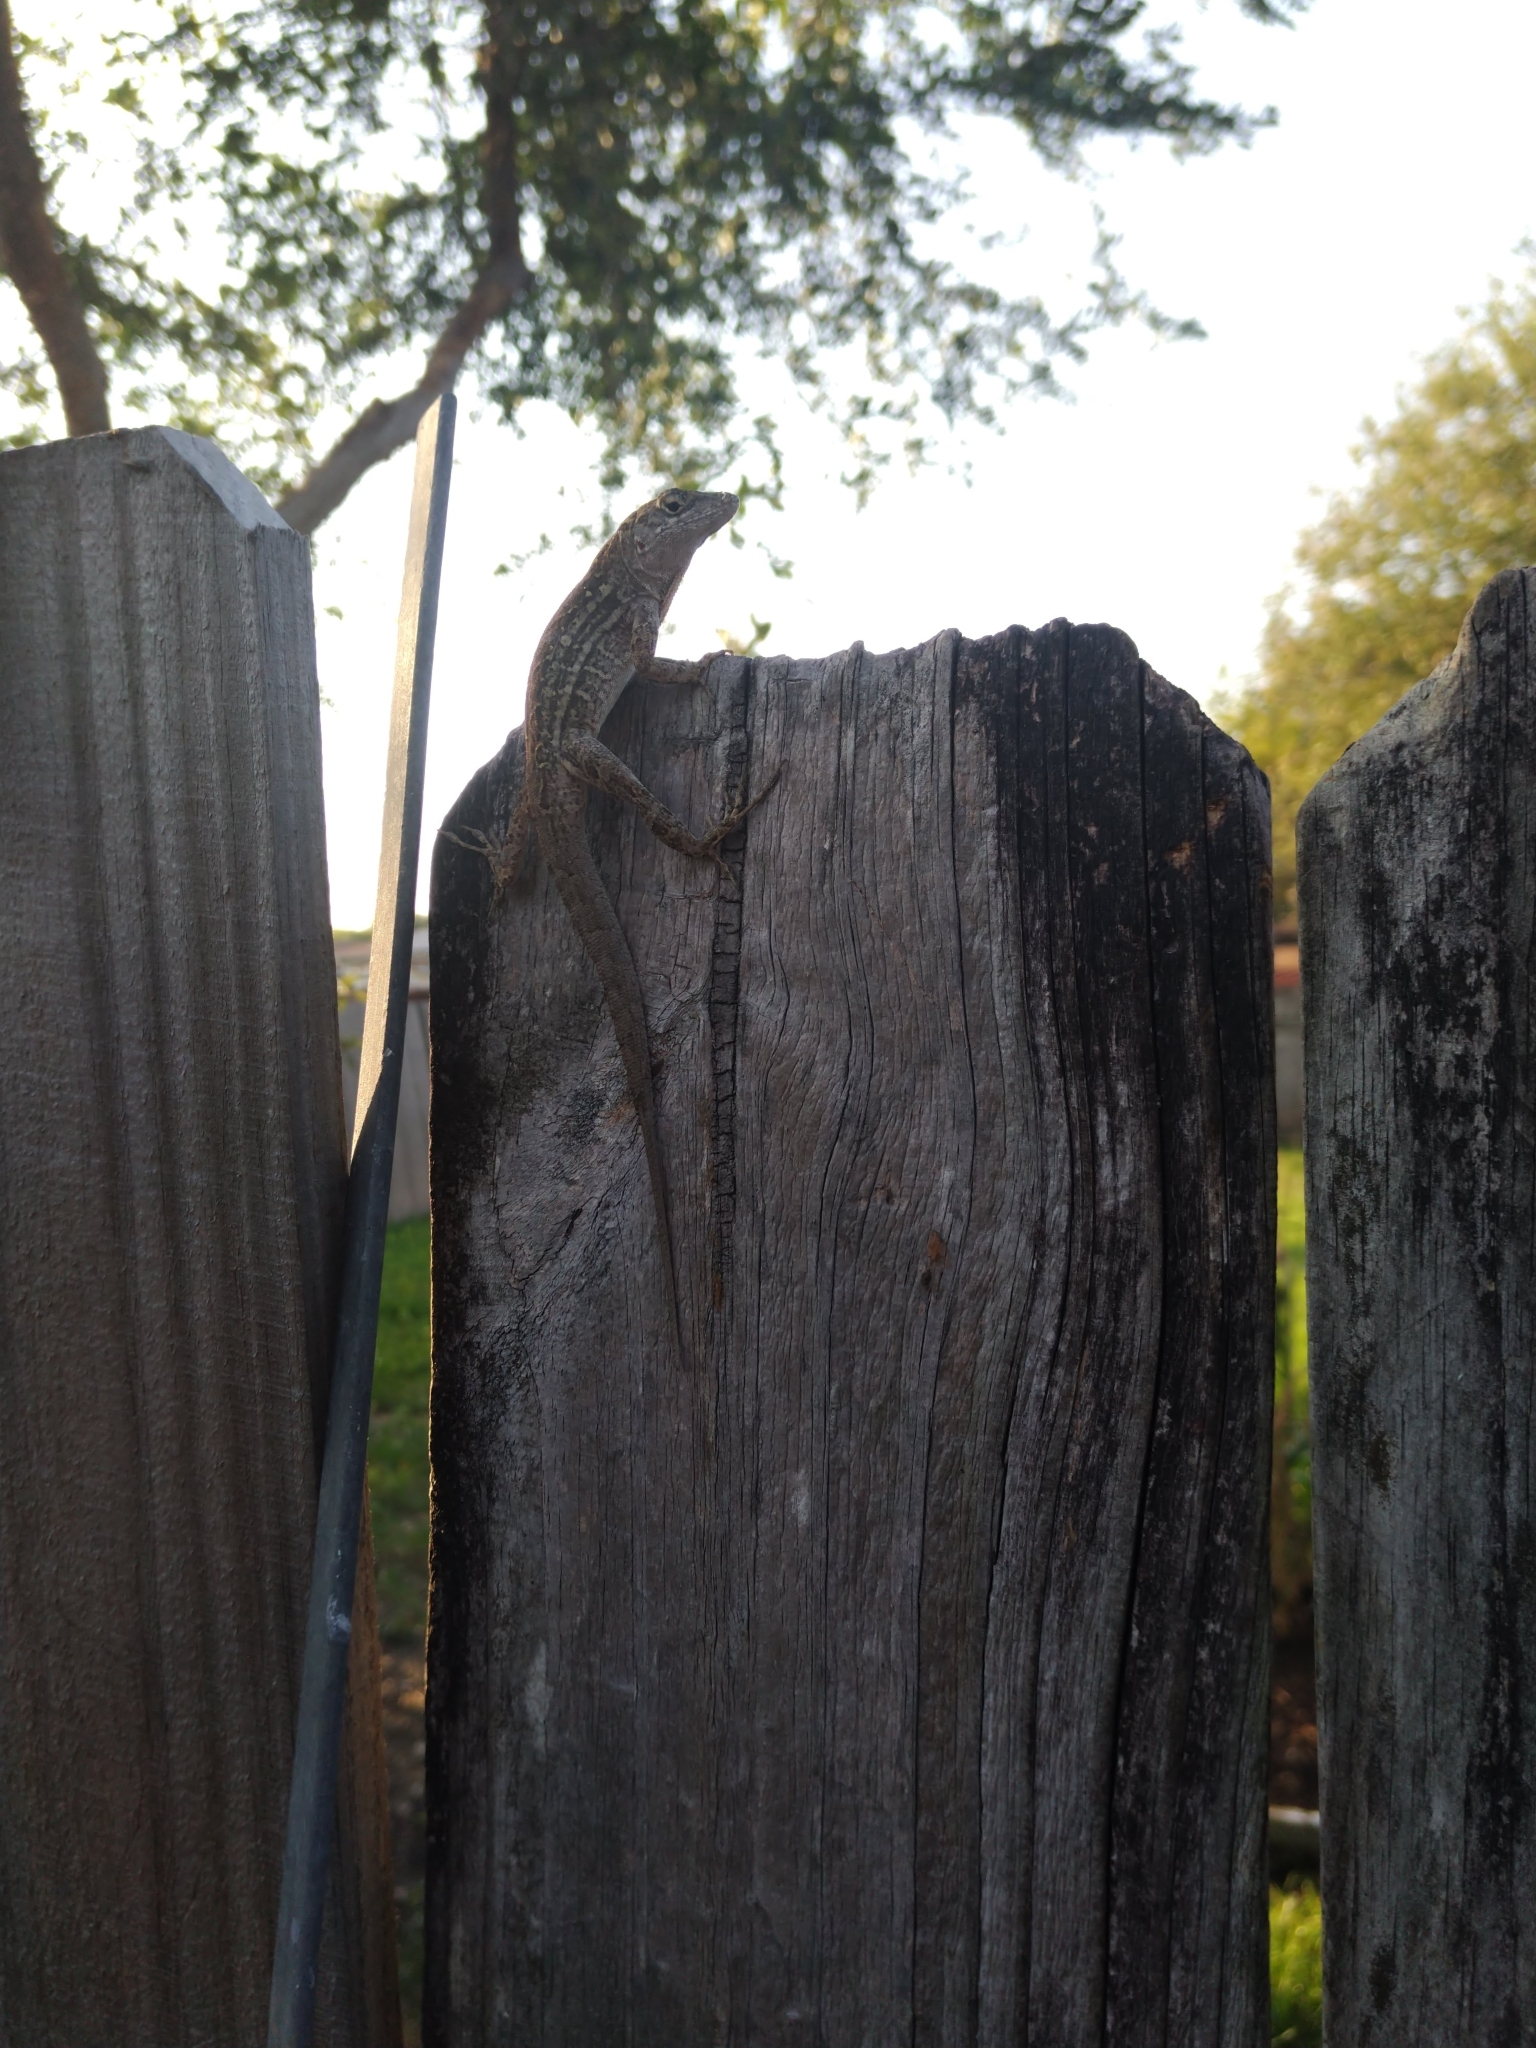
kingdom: Animalia
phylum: Chordata
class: Squamata
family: Dactyloidae
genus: Anolis
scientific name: Anolis sagrei
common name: Brown anole
